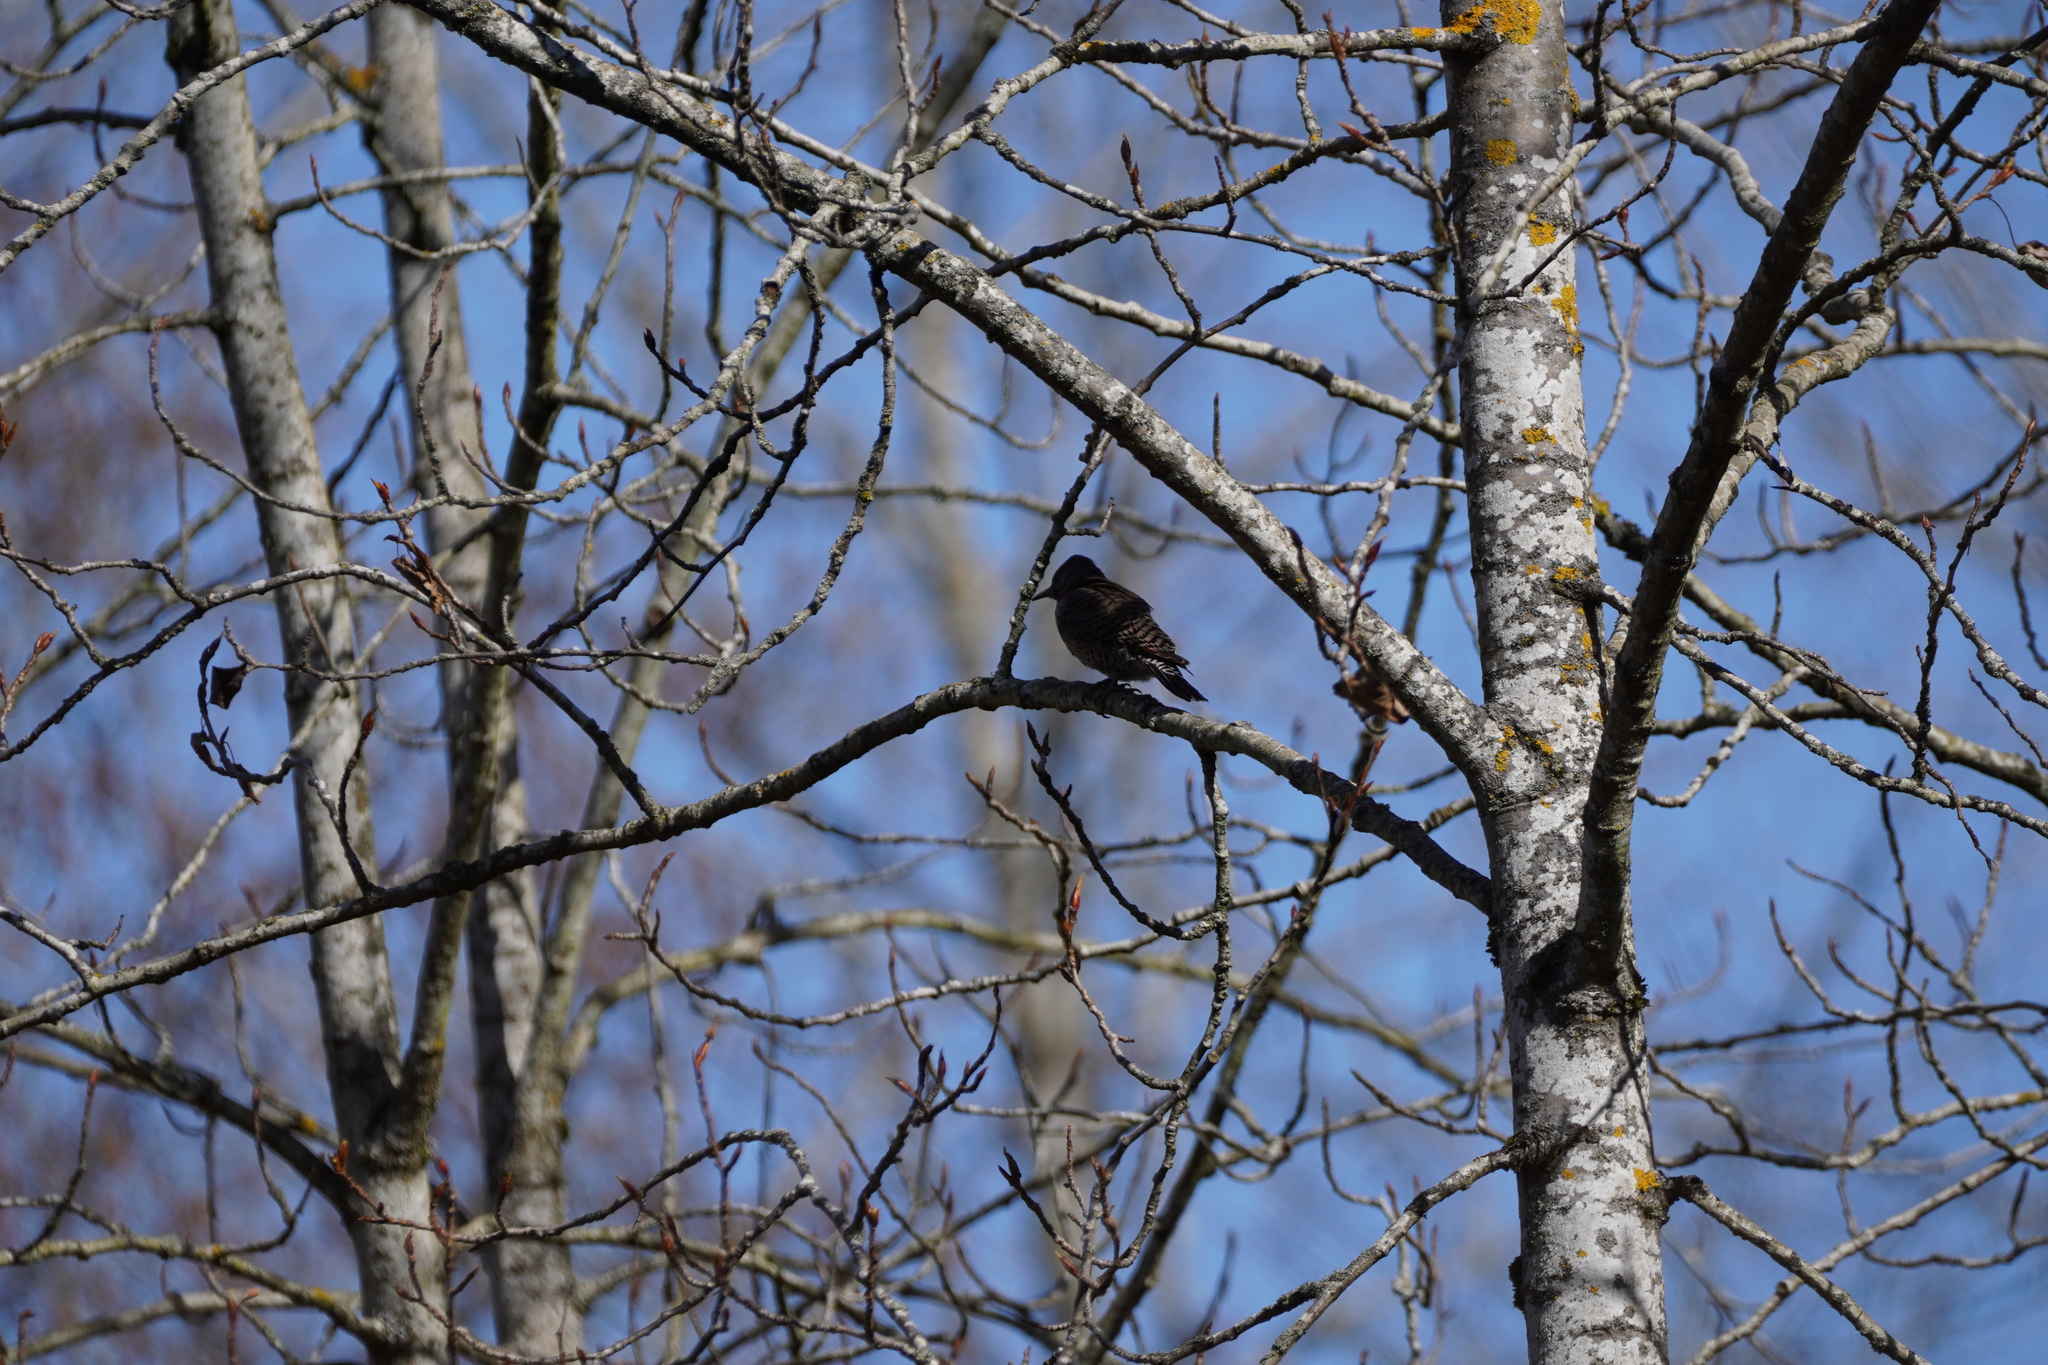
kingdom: Animalia
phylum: Chordata
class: Aves
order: Piciformes
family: Picidae
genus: Colaptes
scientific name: Colaptes auratus
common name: Northern flicker
